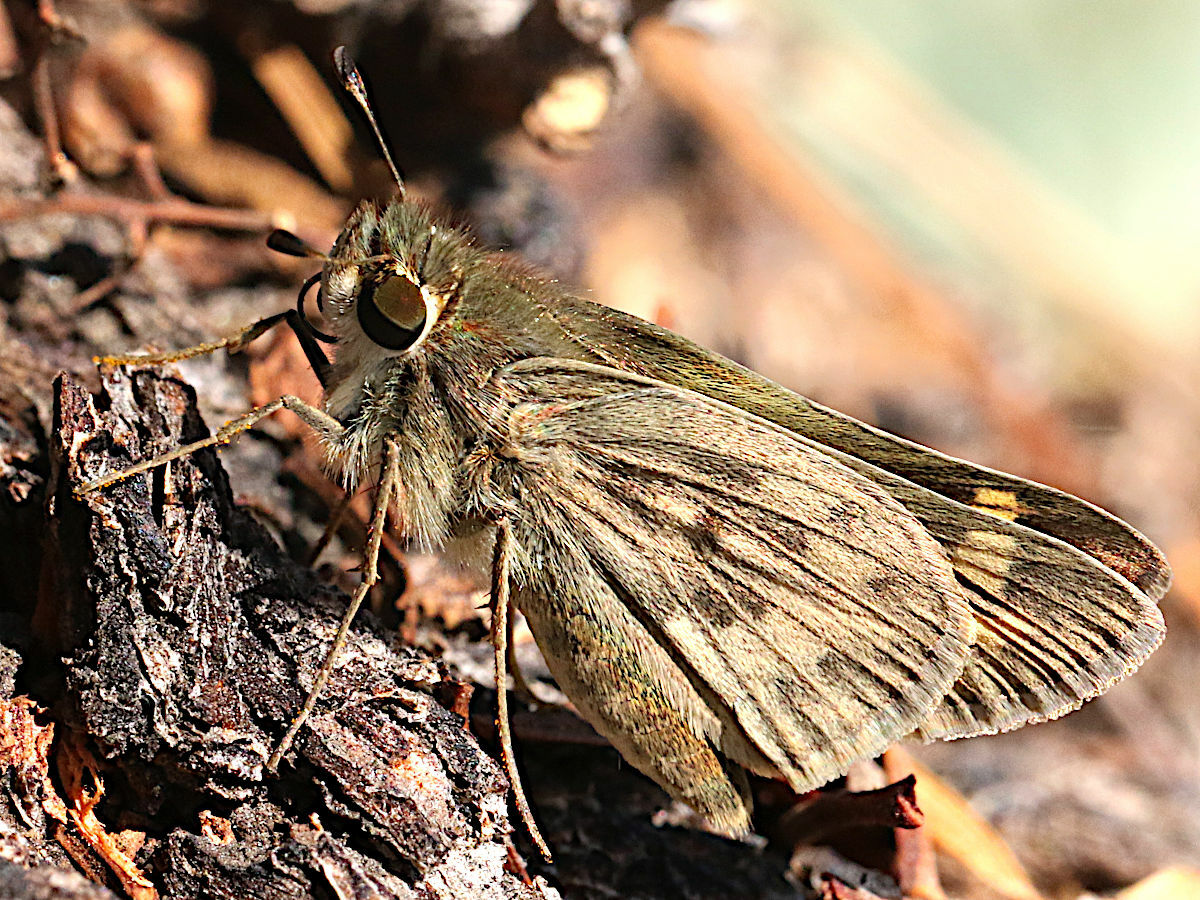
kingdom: Animalia
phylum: Arthropoda
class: Insecta
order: Lepidoptera
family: Hesperiidae
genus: Hylephila
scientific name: Hylephila phyleus
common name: Fiery skipper
